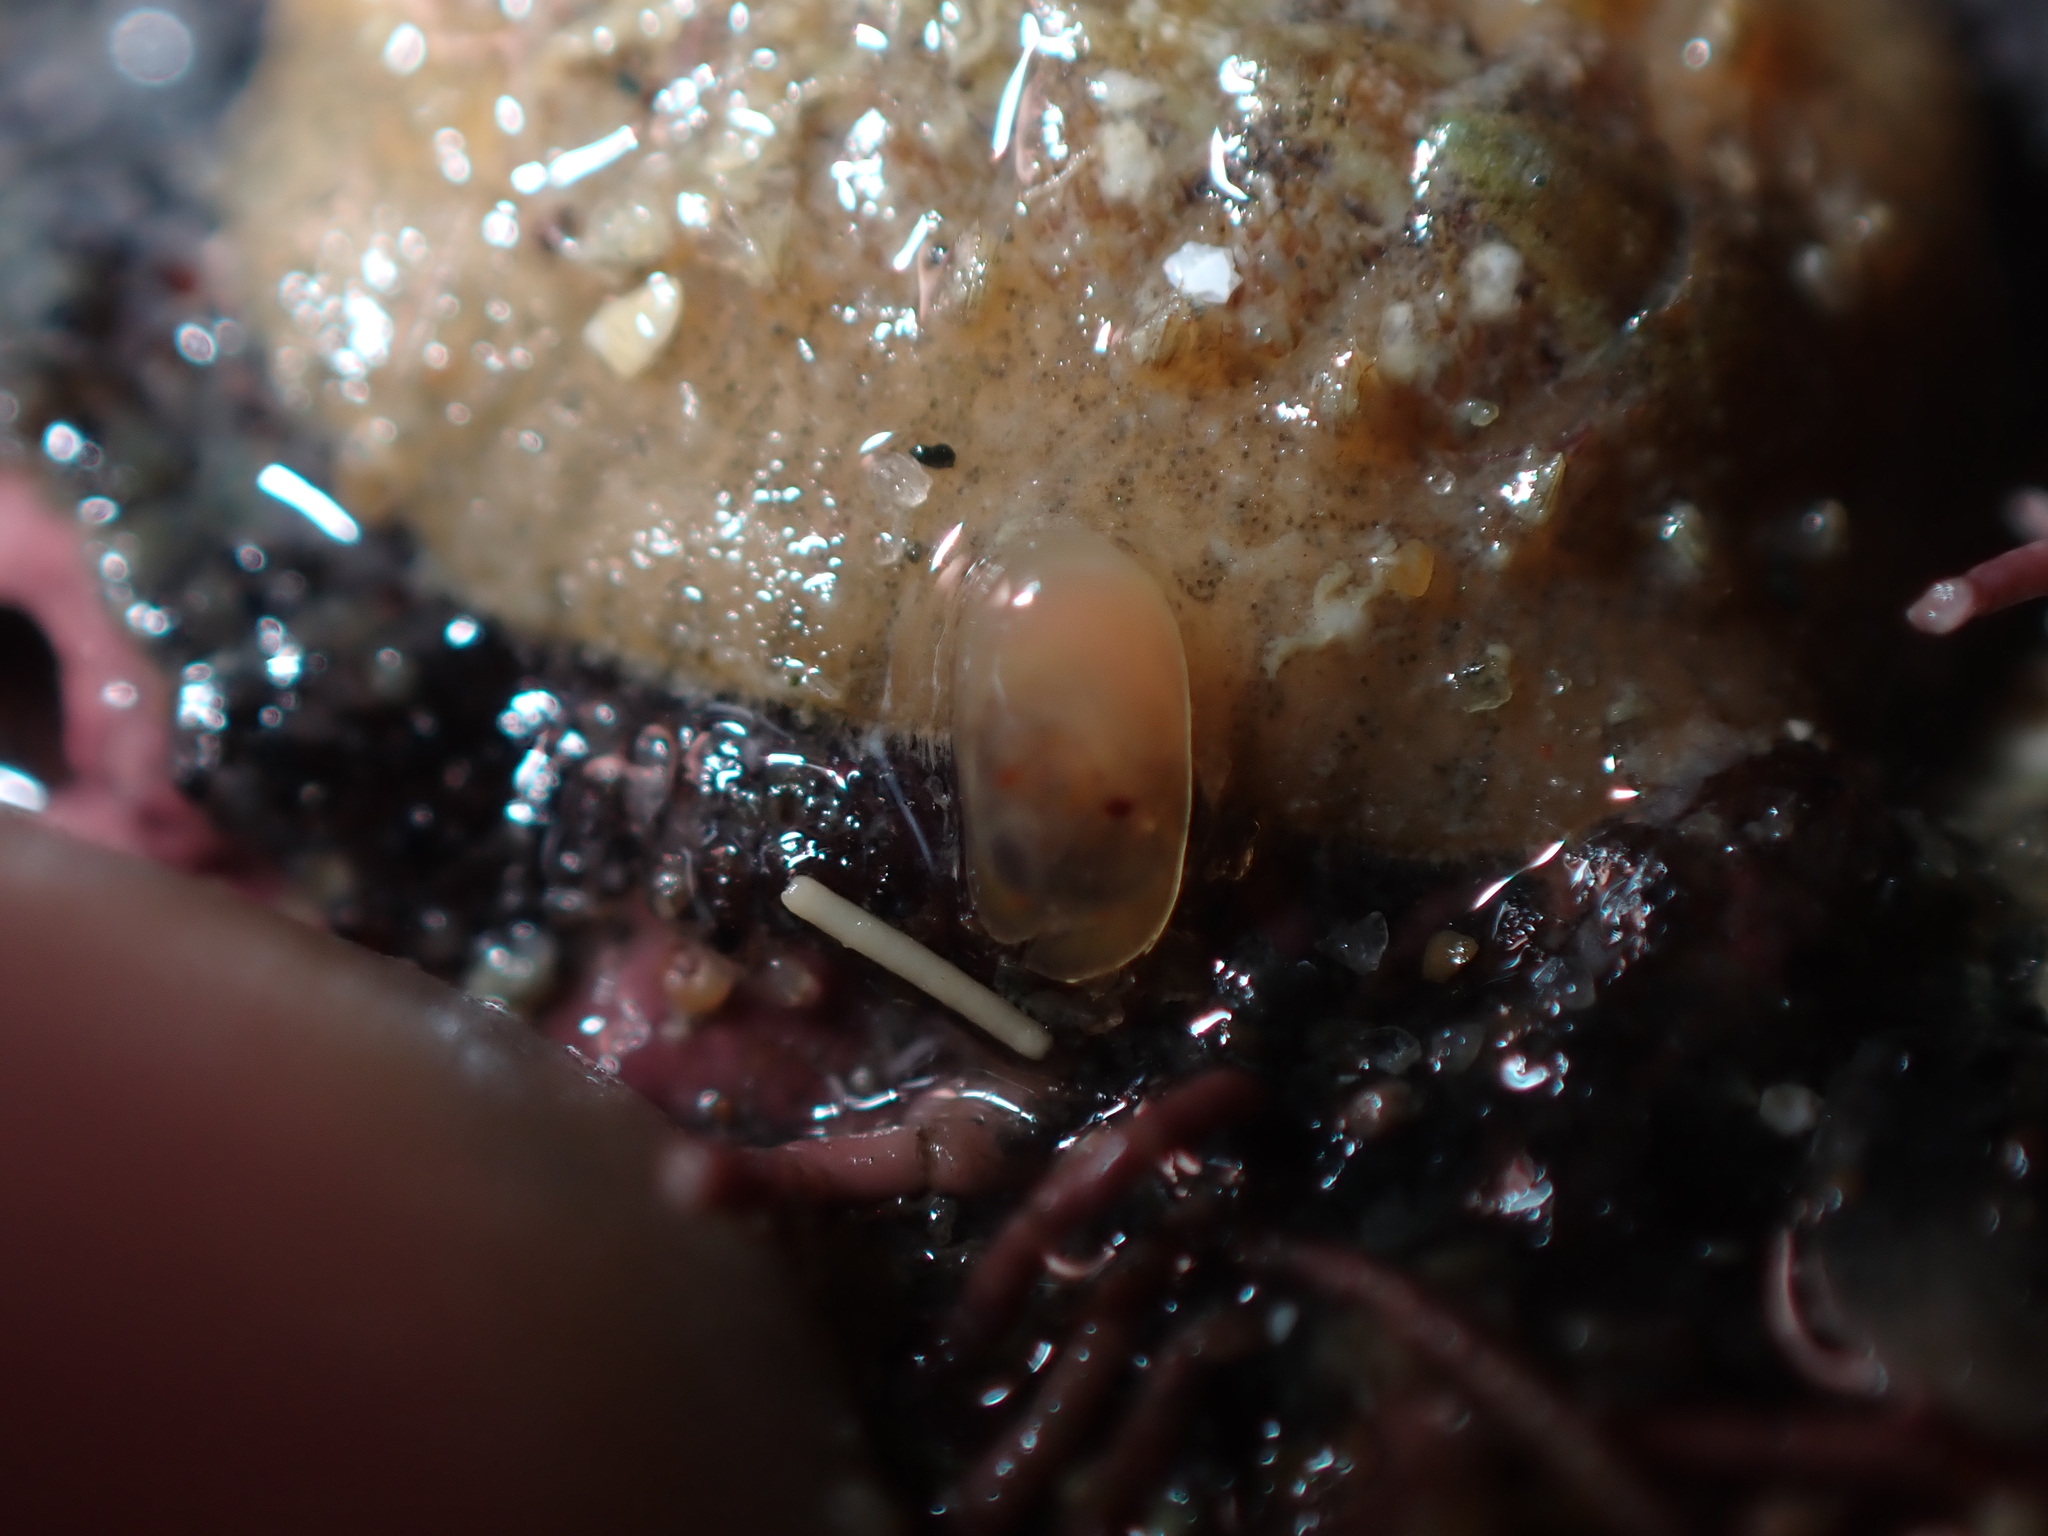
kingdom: Animalia
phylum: Mollusca
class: Polyplacophora
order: Chitonida
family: Acanthochitonidae
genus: Notoplax
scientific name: Notoplax violacea
